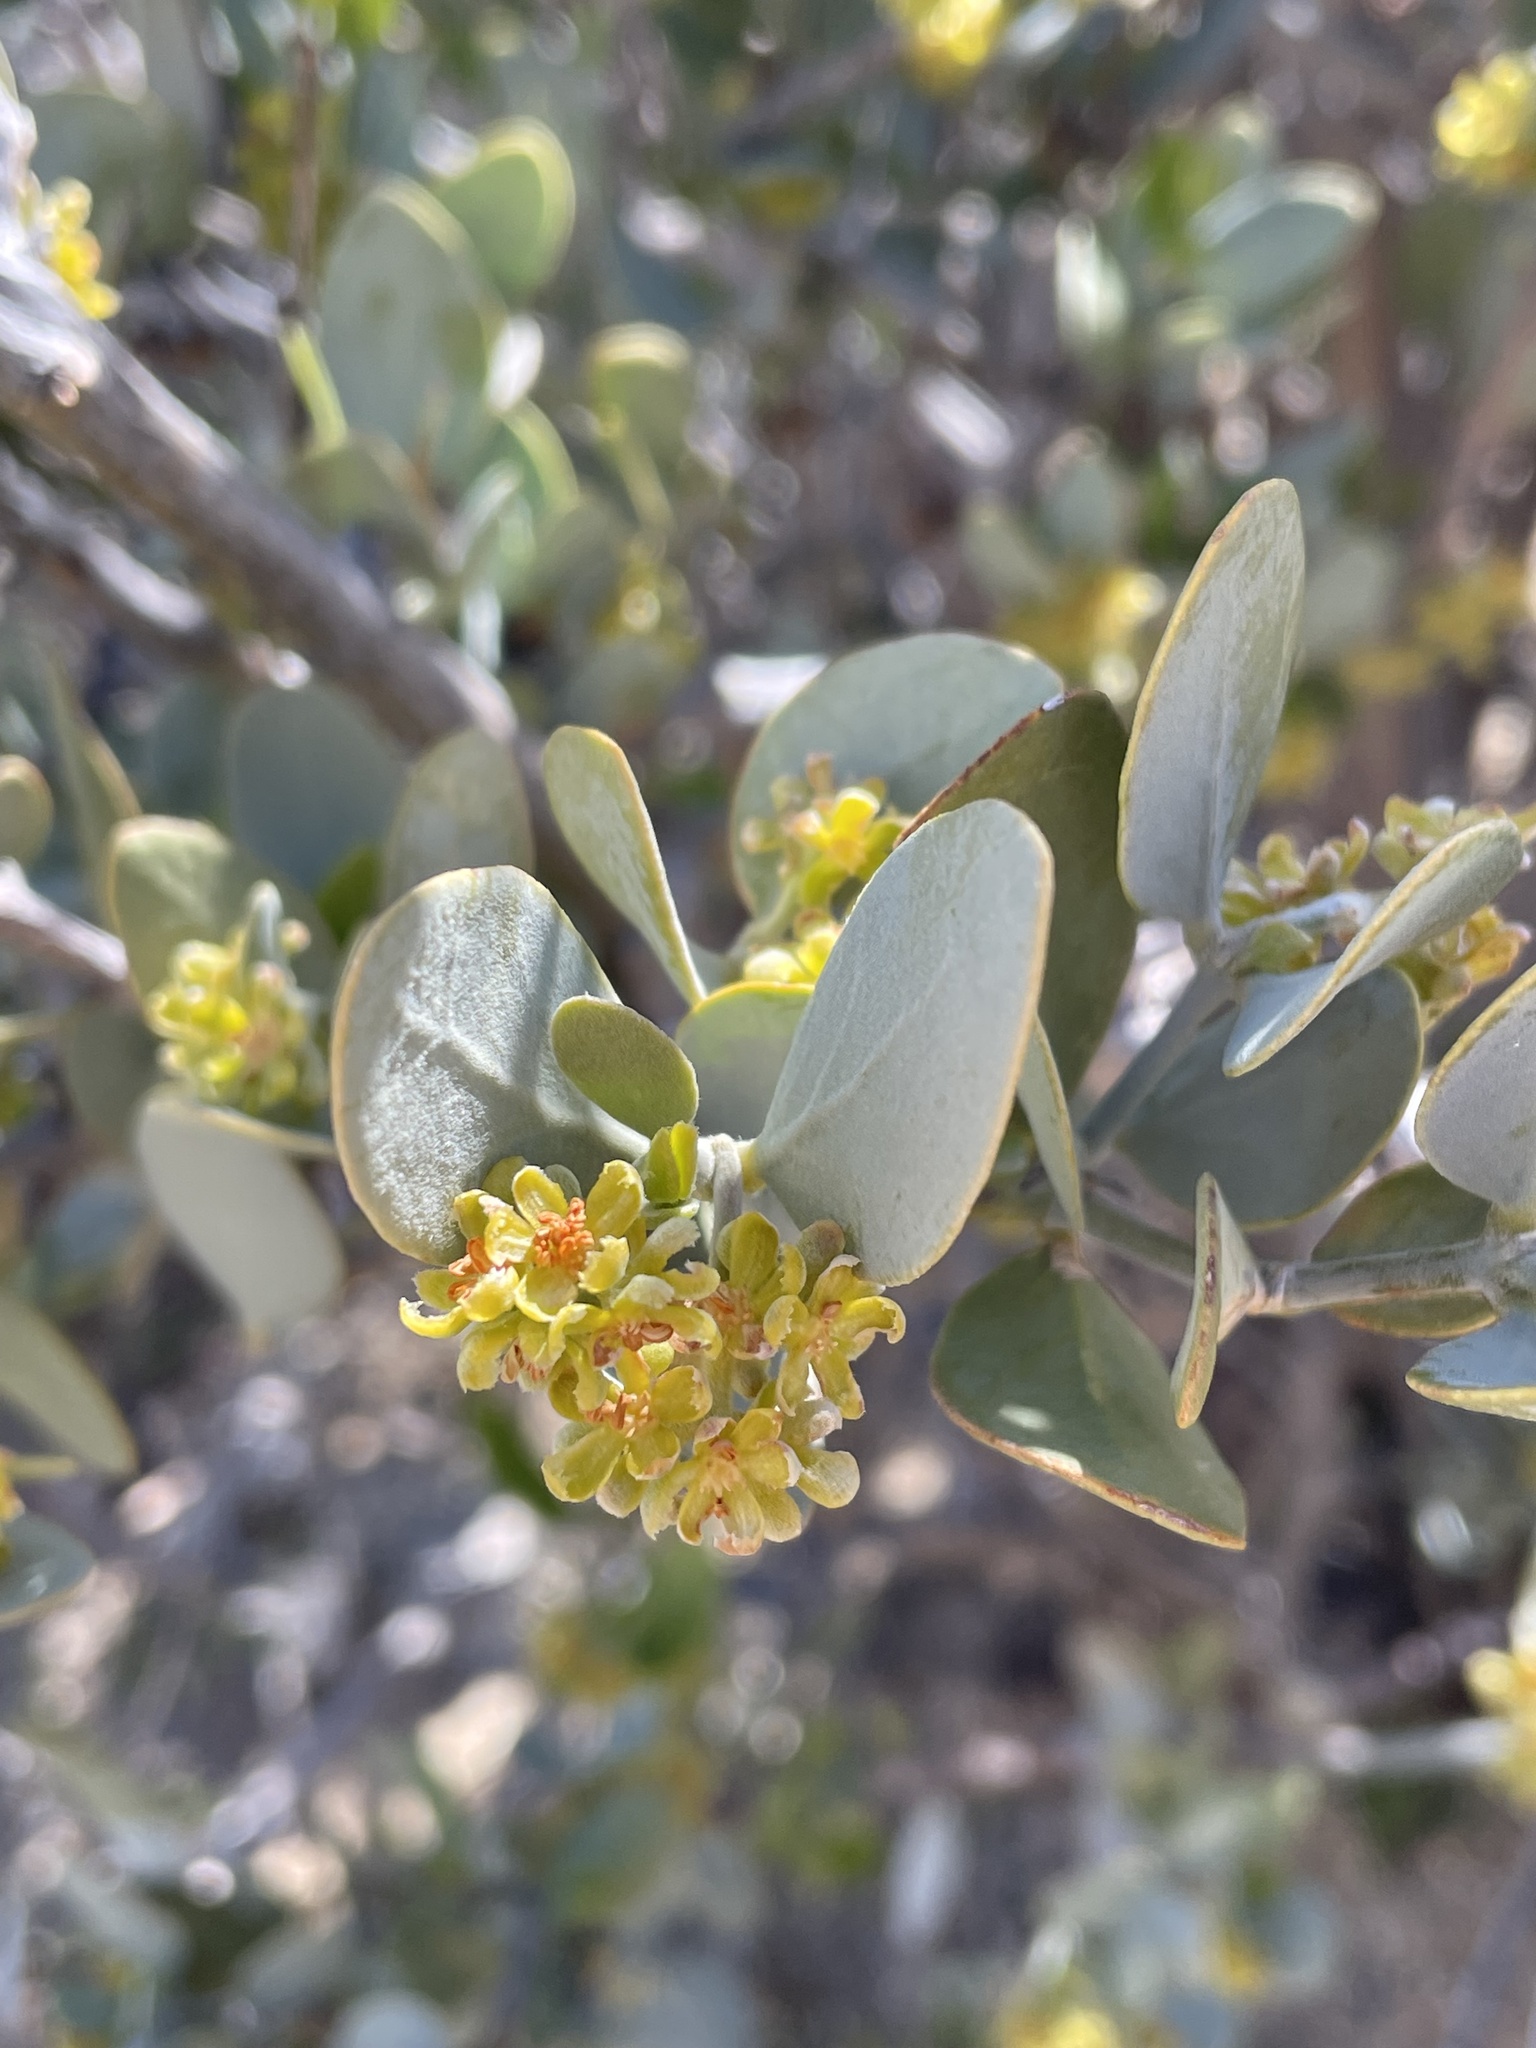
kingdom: Plantae
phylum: Tracheophyta
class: Magnoliopsida
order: Caryophyllales
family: Simmondsiaceae
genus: Simmondsia
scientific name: Simmondsia chinensis
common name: Jojoba
